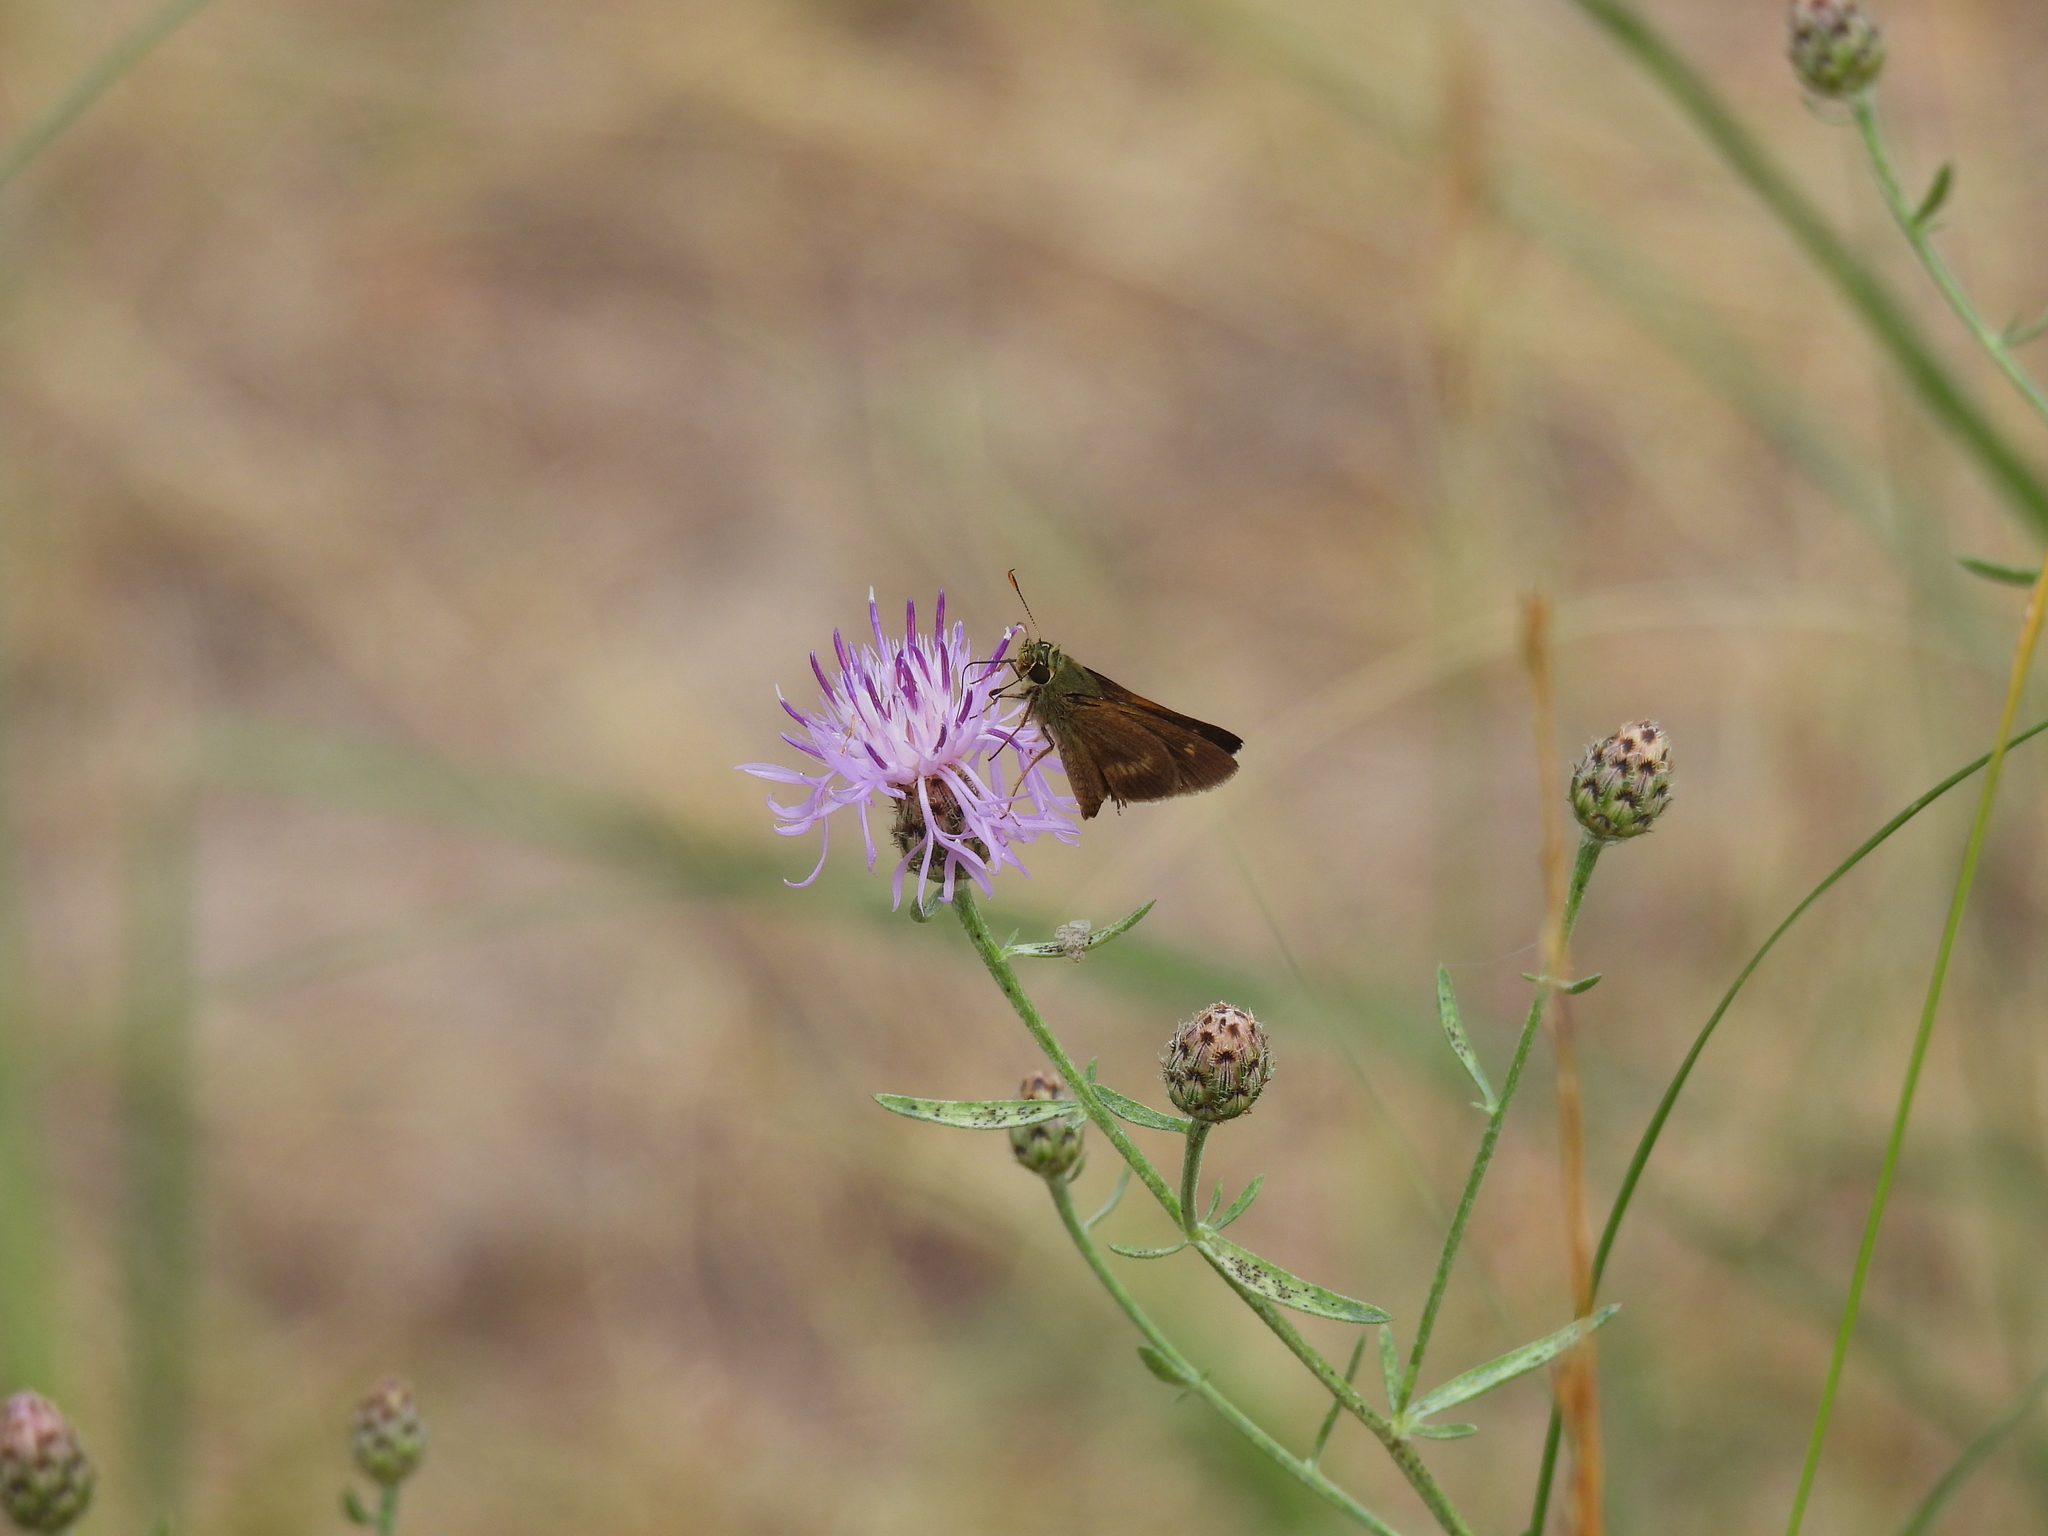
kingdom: Animalia
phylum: Arthropoda
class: Insecta
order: Lepidoptera
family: Hesperiidae
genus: Euphyes
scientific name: Euphyes vestris
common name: Dun skipper
